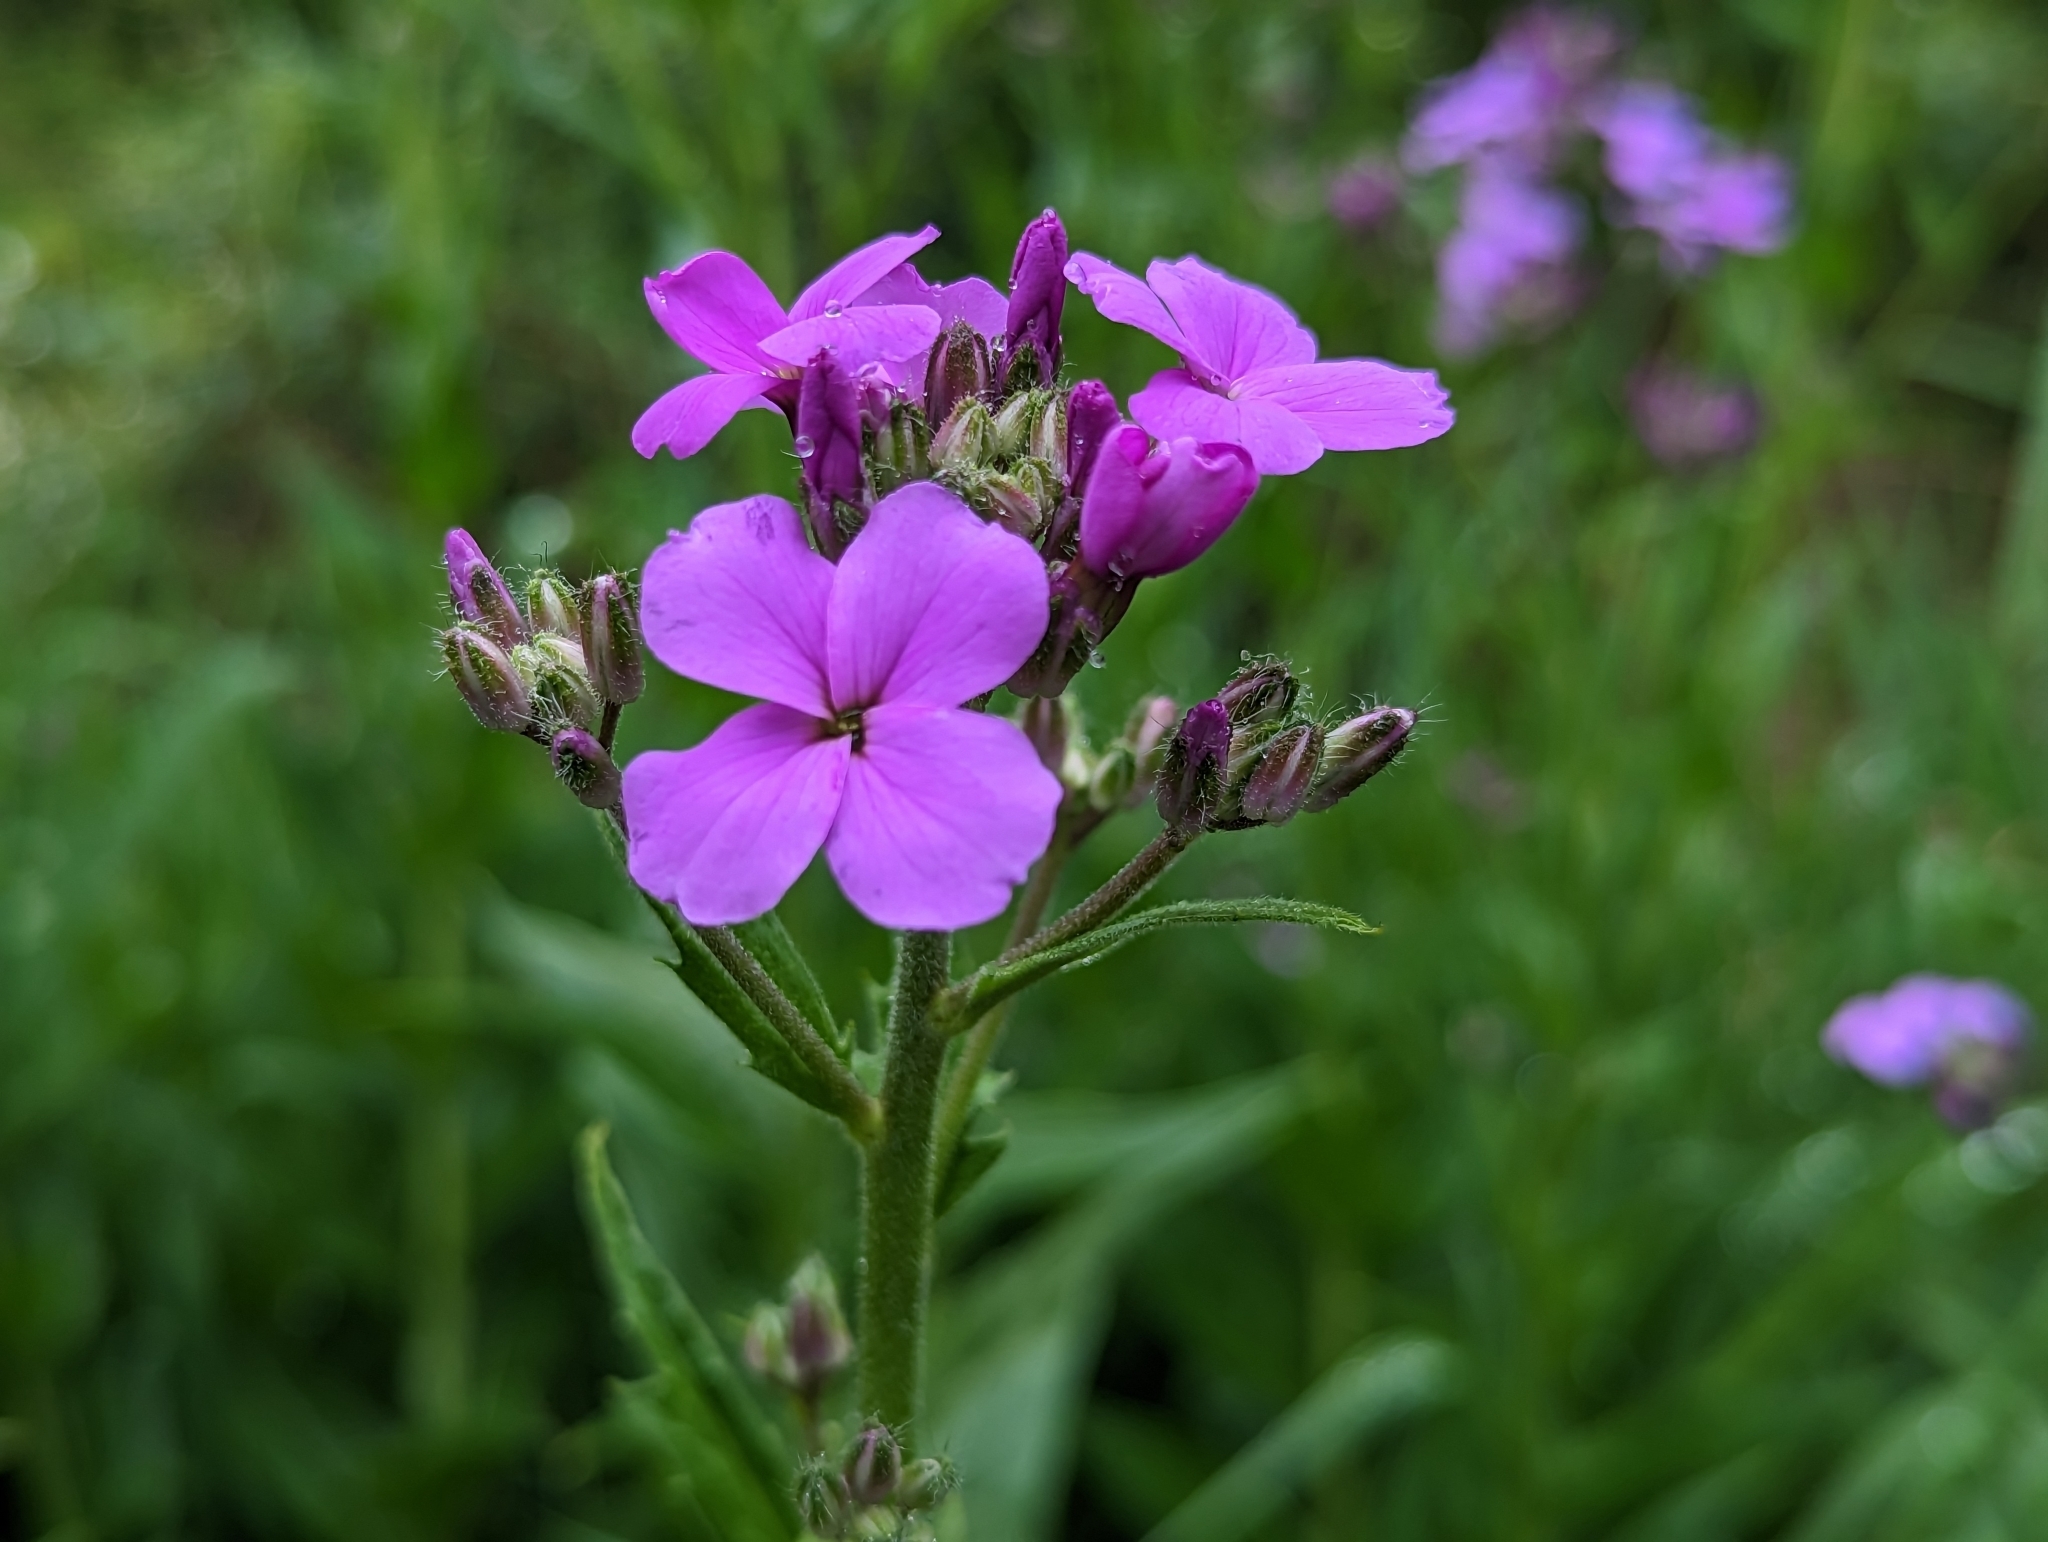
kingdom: Plantae
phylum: Tracheophyta
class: Magnoliopsida
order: Brassicales
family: Brassicaceae
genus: Hesperis
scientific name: Hesperis matronalis
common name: Dame's-violet
